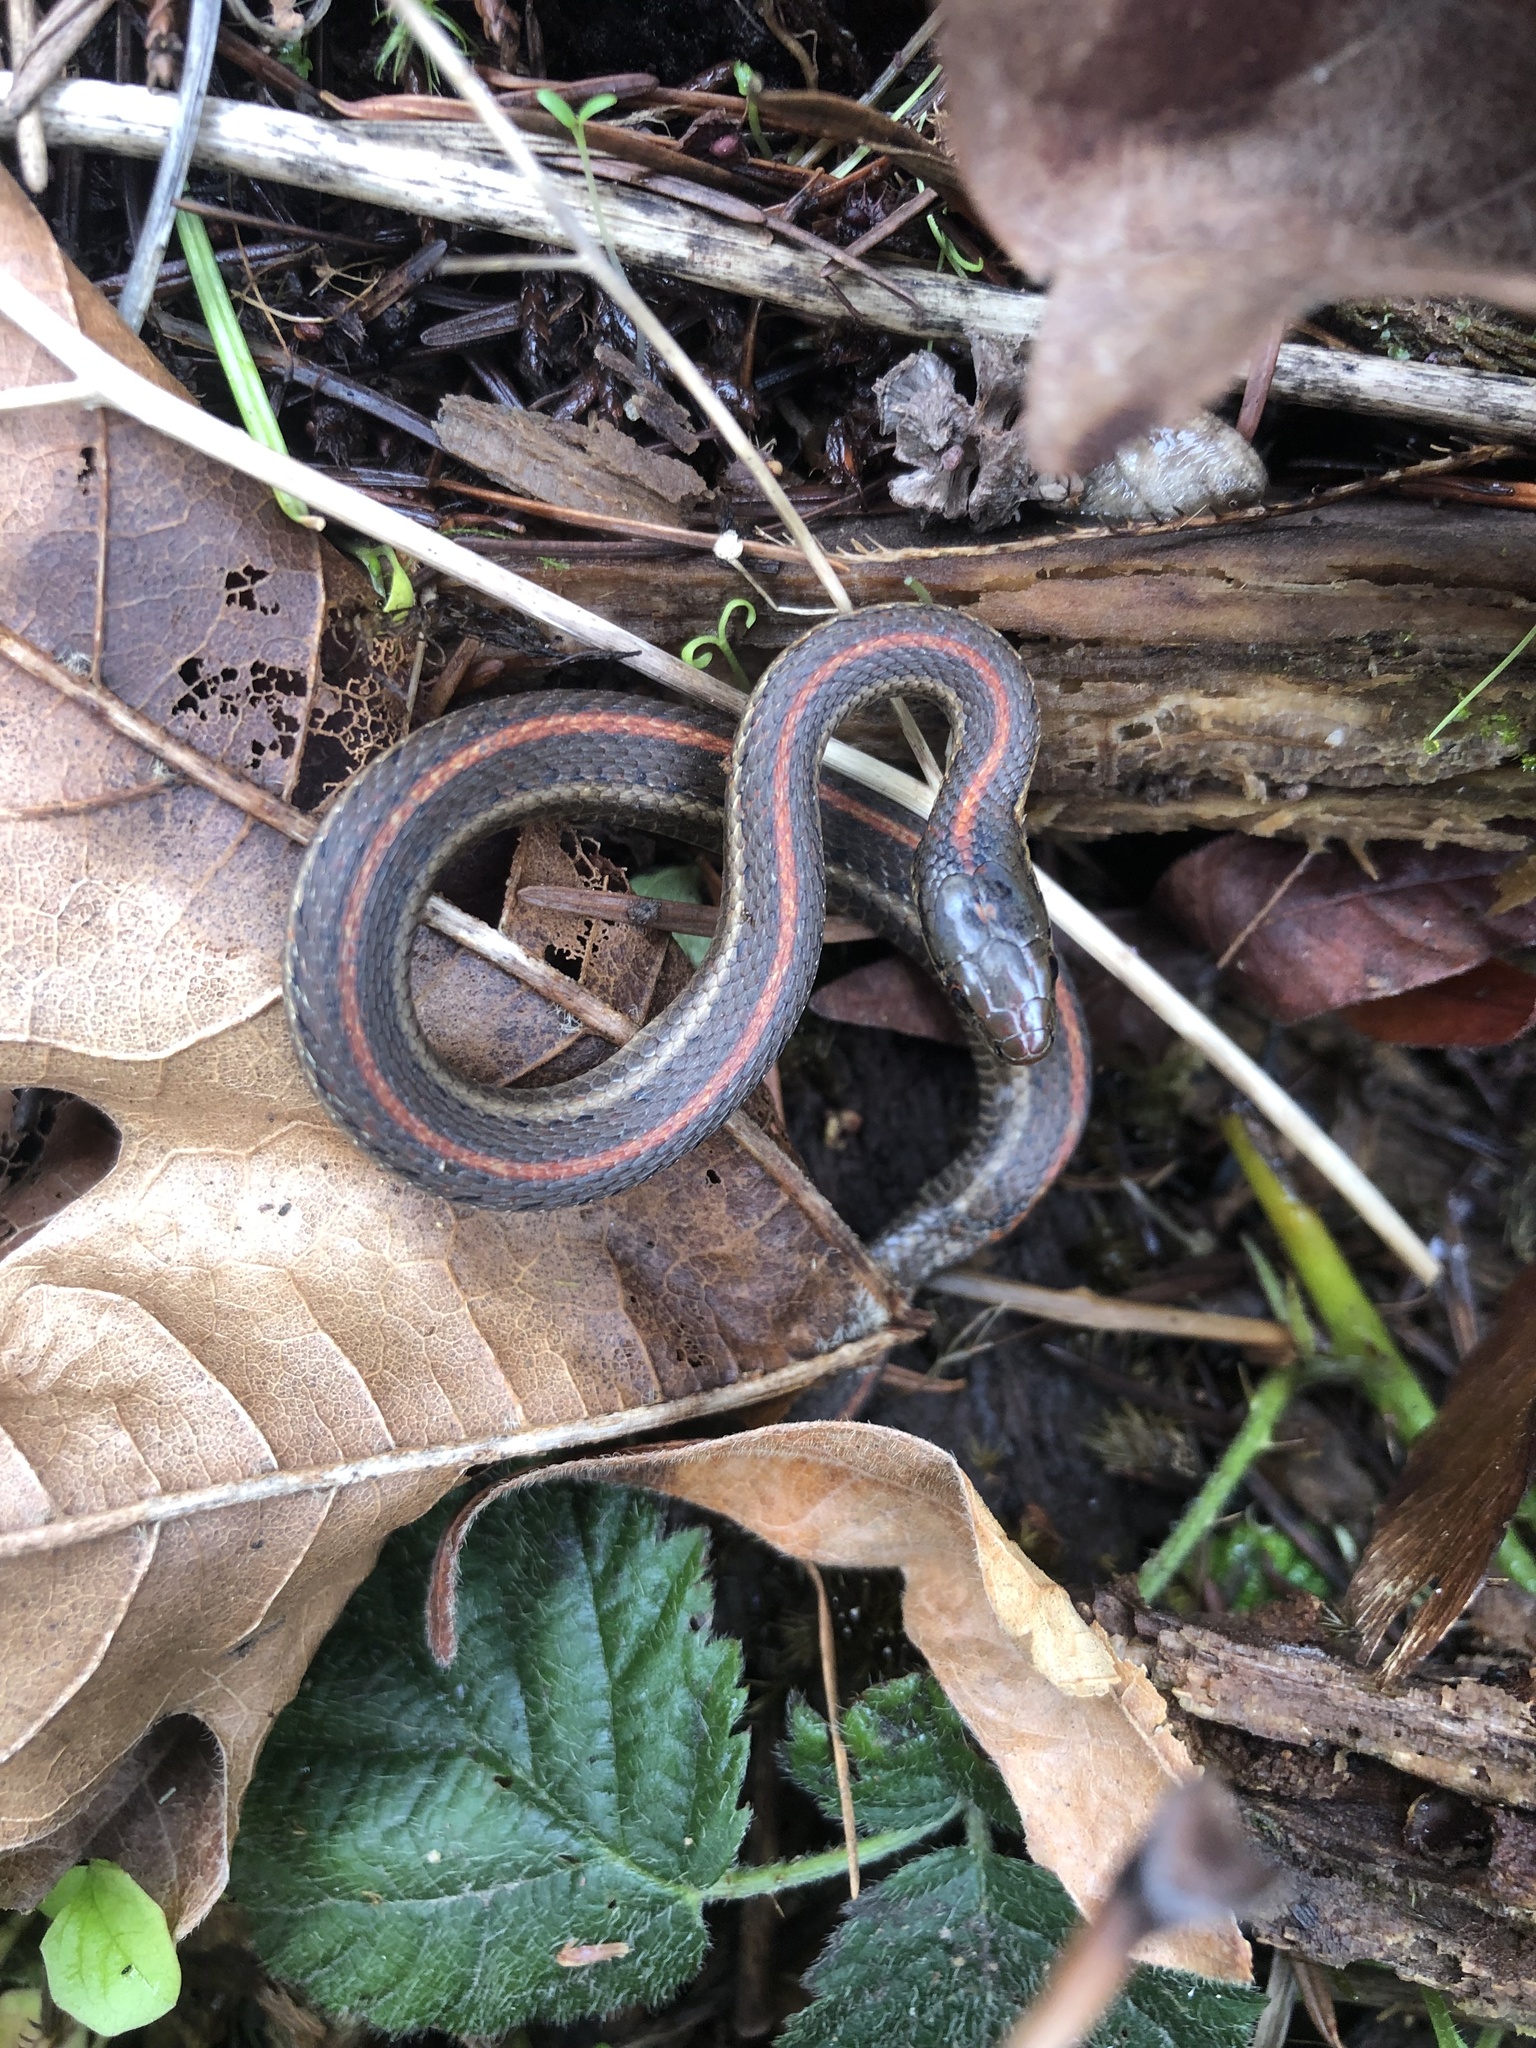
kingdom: Animalia
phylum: Chordata
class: Squamata
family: Colubridae
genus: Thamnophis
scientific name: Thamnophis ordinoides
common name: Northwestern garter snake
